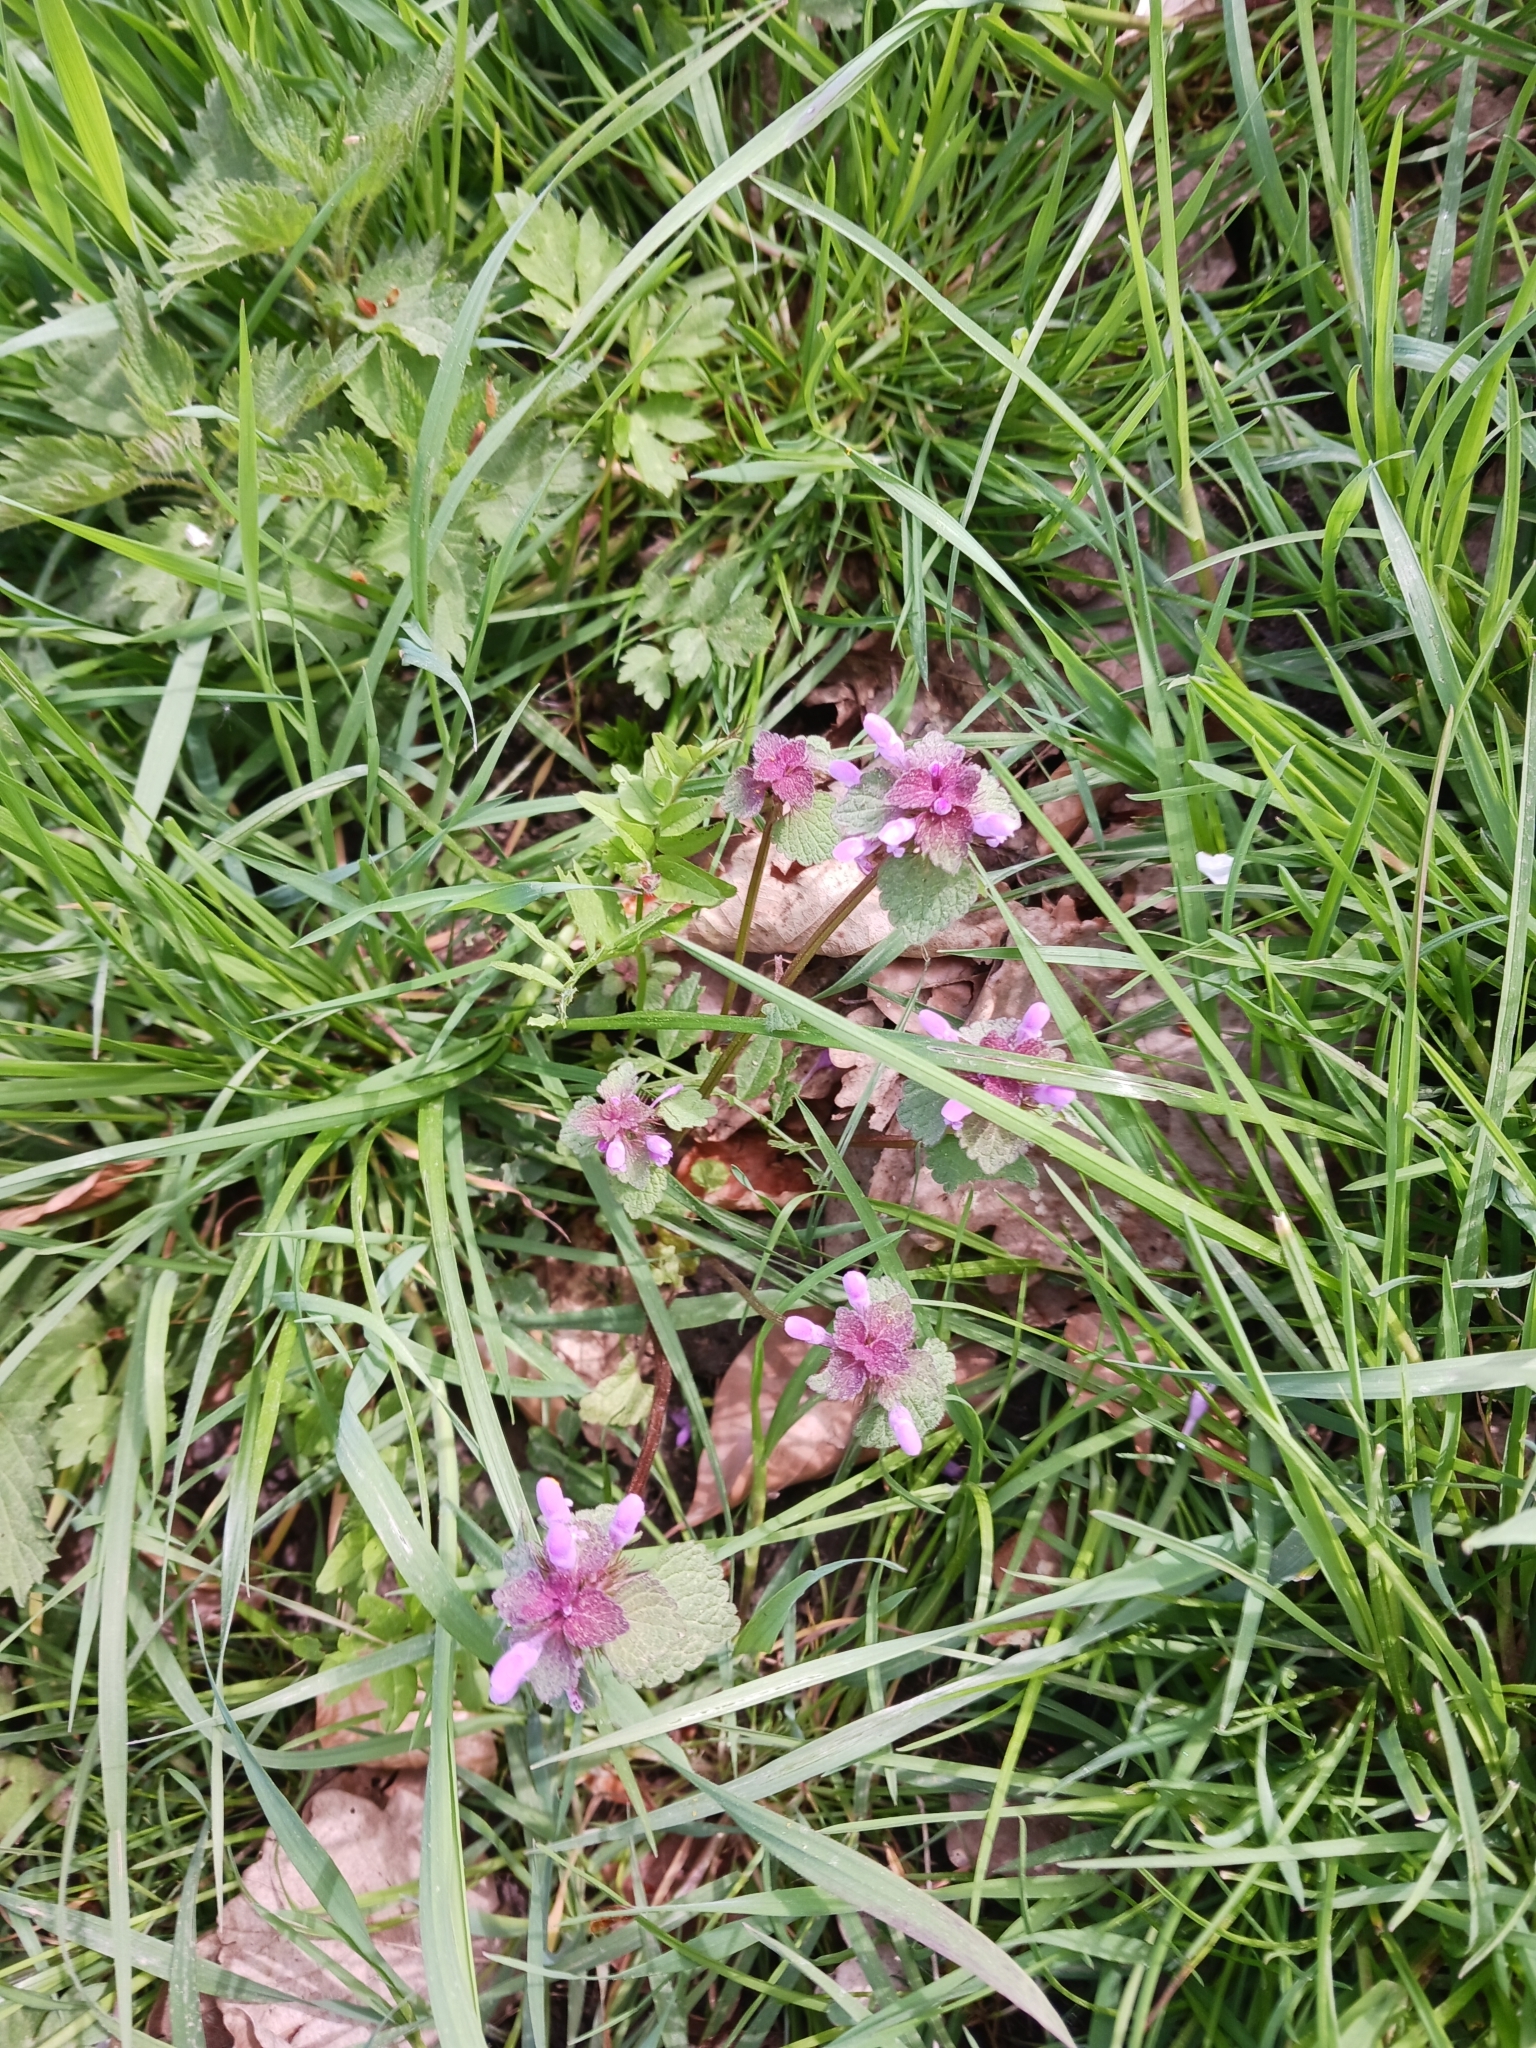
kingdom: Plantae
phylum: Tracheophyta
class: Magnoliopsida
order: Lamiales
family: Lamiaceae
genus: Lamium
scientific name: Lamium purpureum
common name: Red dead-nettle
